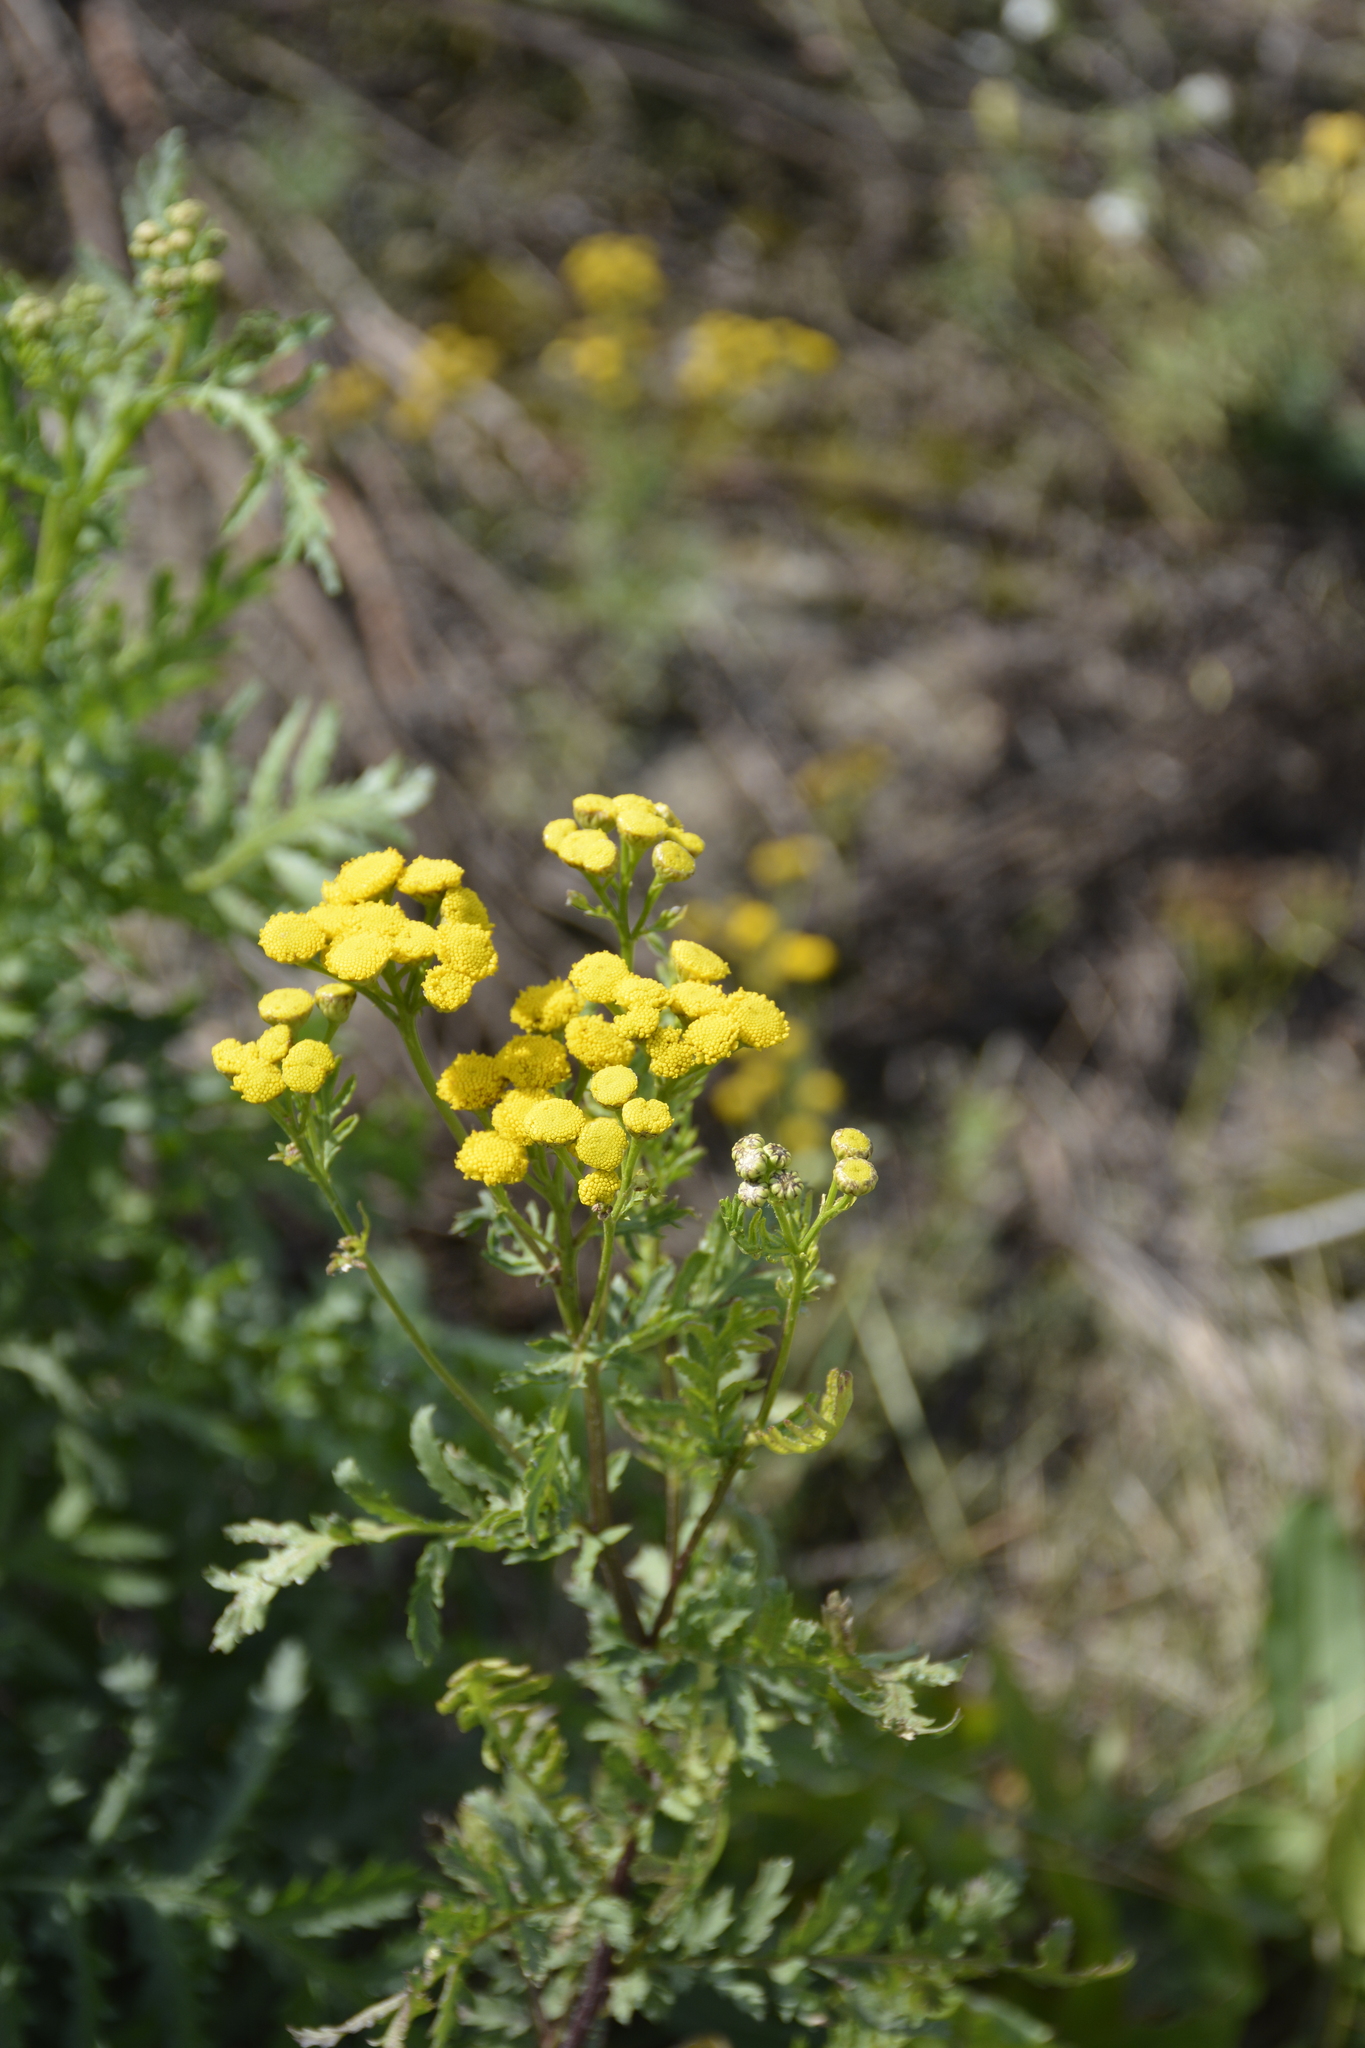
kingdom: Plantae
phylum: Tracheophyta
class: Magnoliopsida
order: Asterales
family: Asteraceae
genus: Tanacetum
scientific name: Tanacetum vulgare
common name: Common tansy
